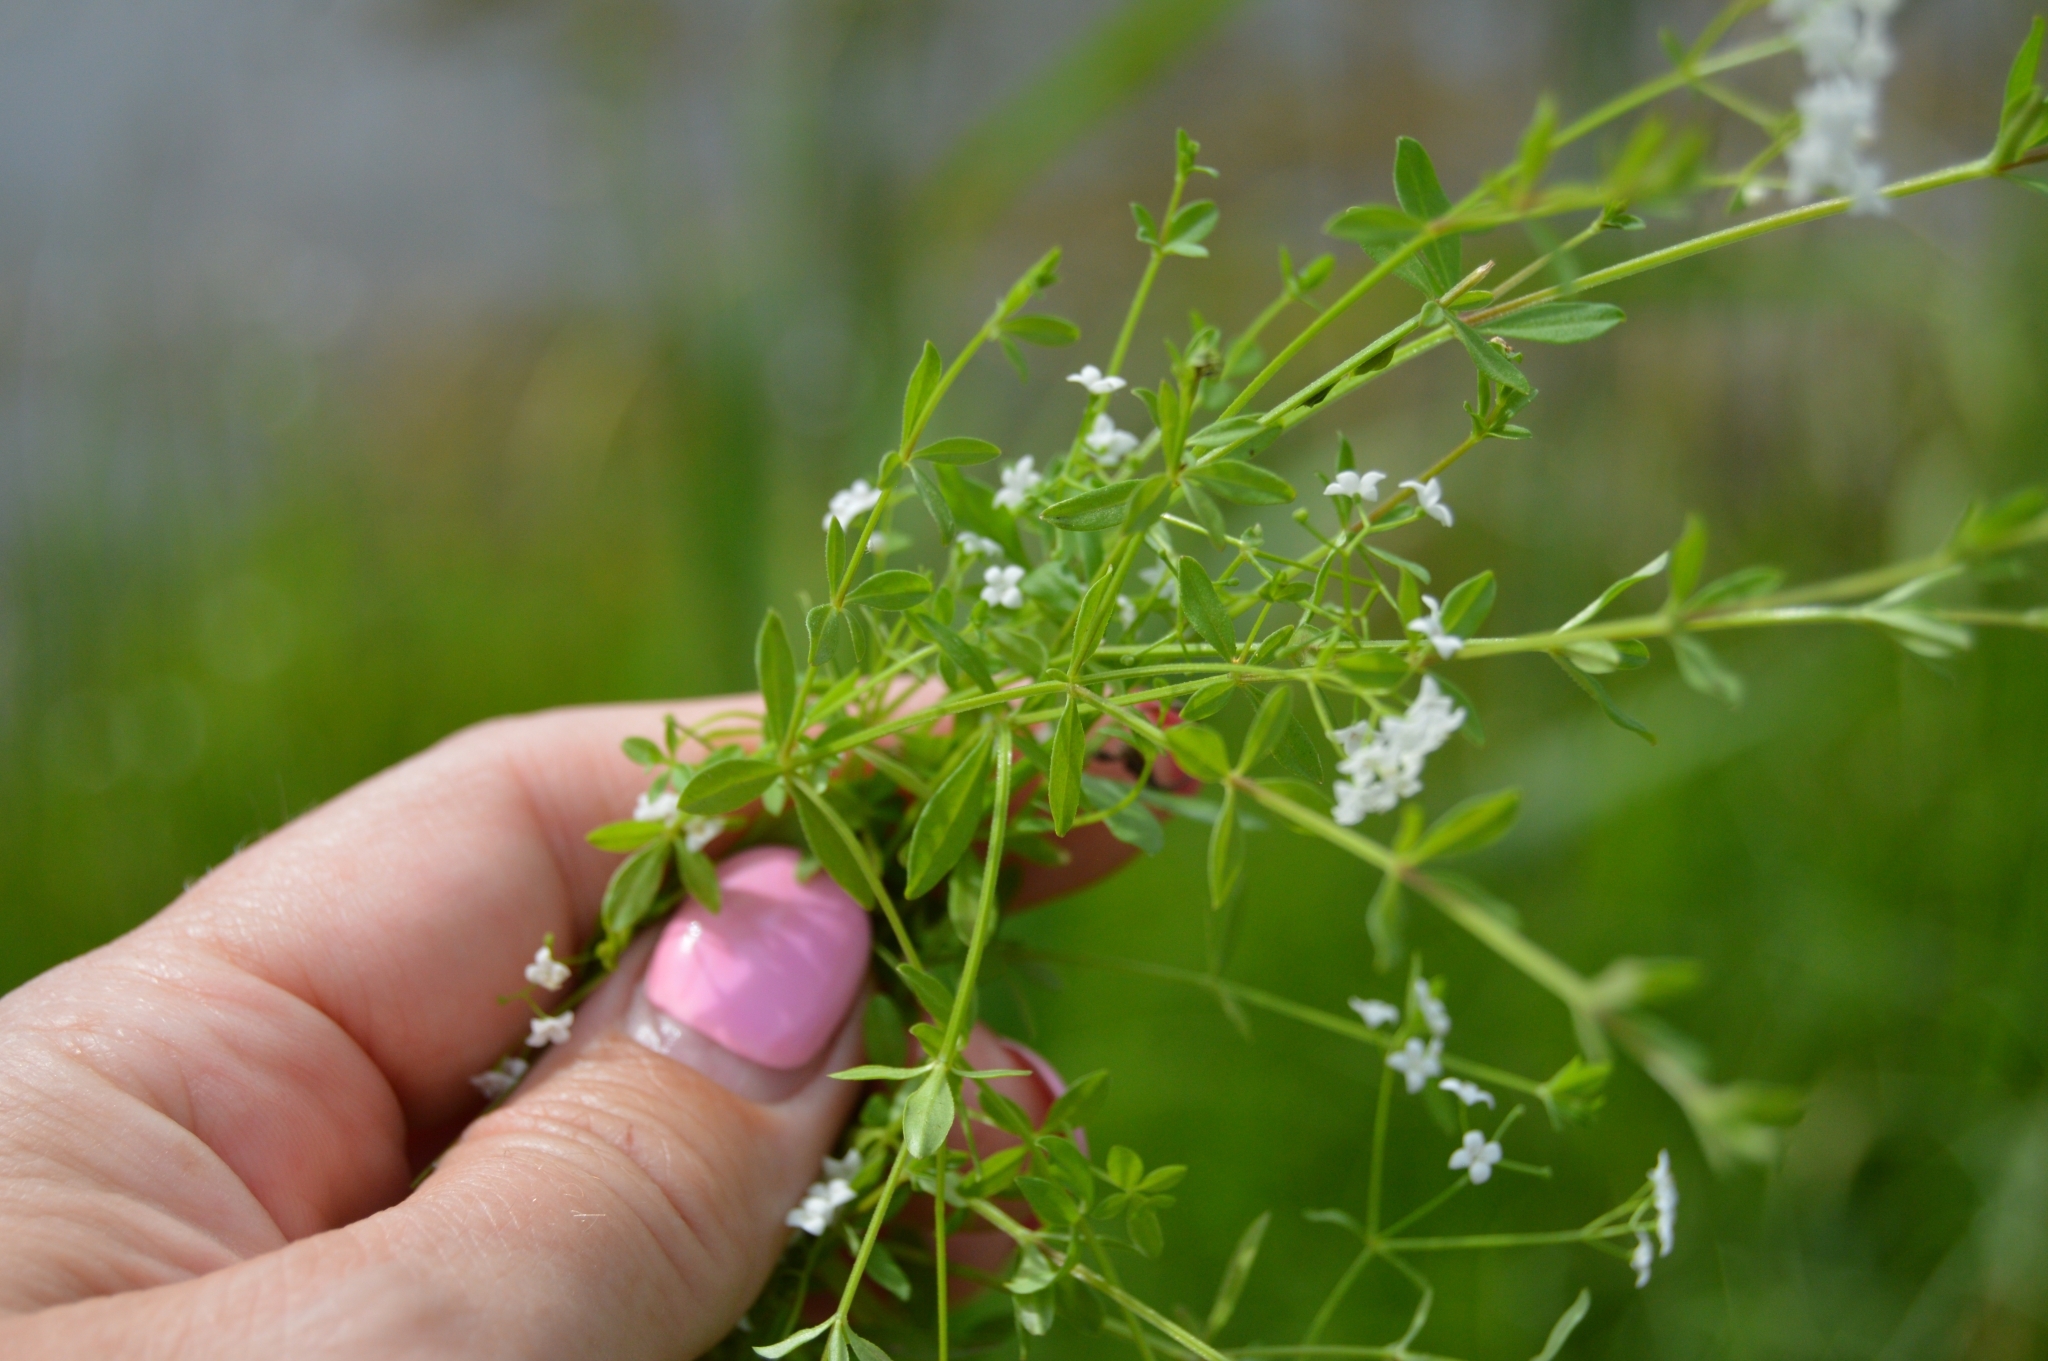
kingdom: Plantae
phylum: Tracheophyta
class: Magnoliopsida
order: Gentianales
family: Rubiaceae
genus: Galium
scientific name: Galium palustre
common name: Common marsh-bedstraw
